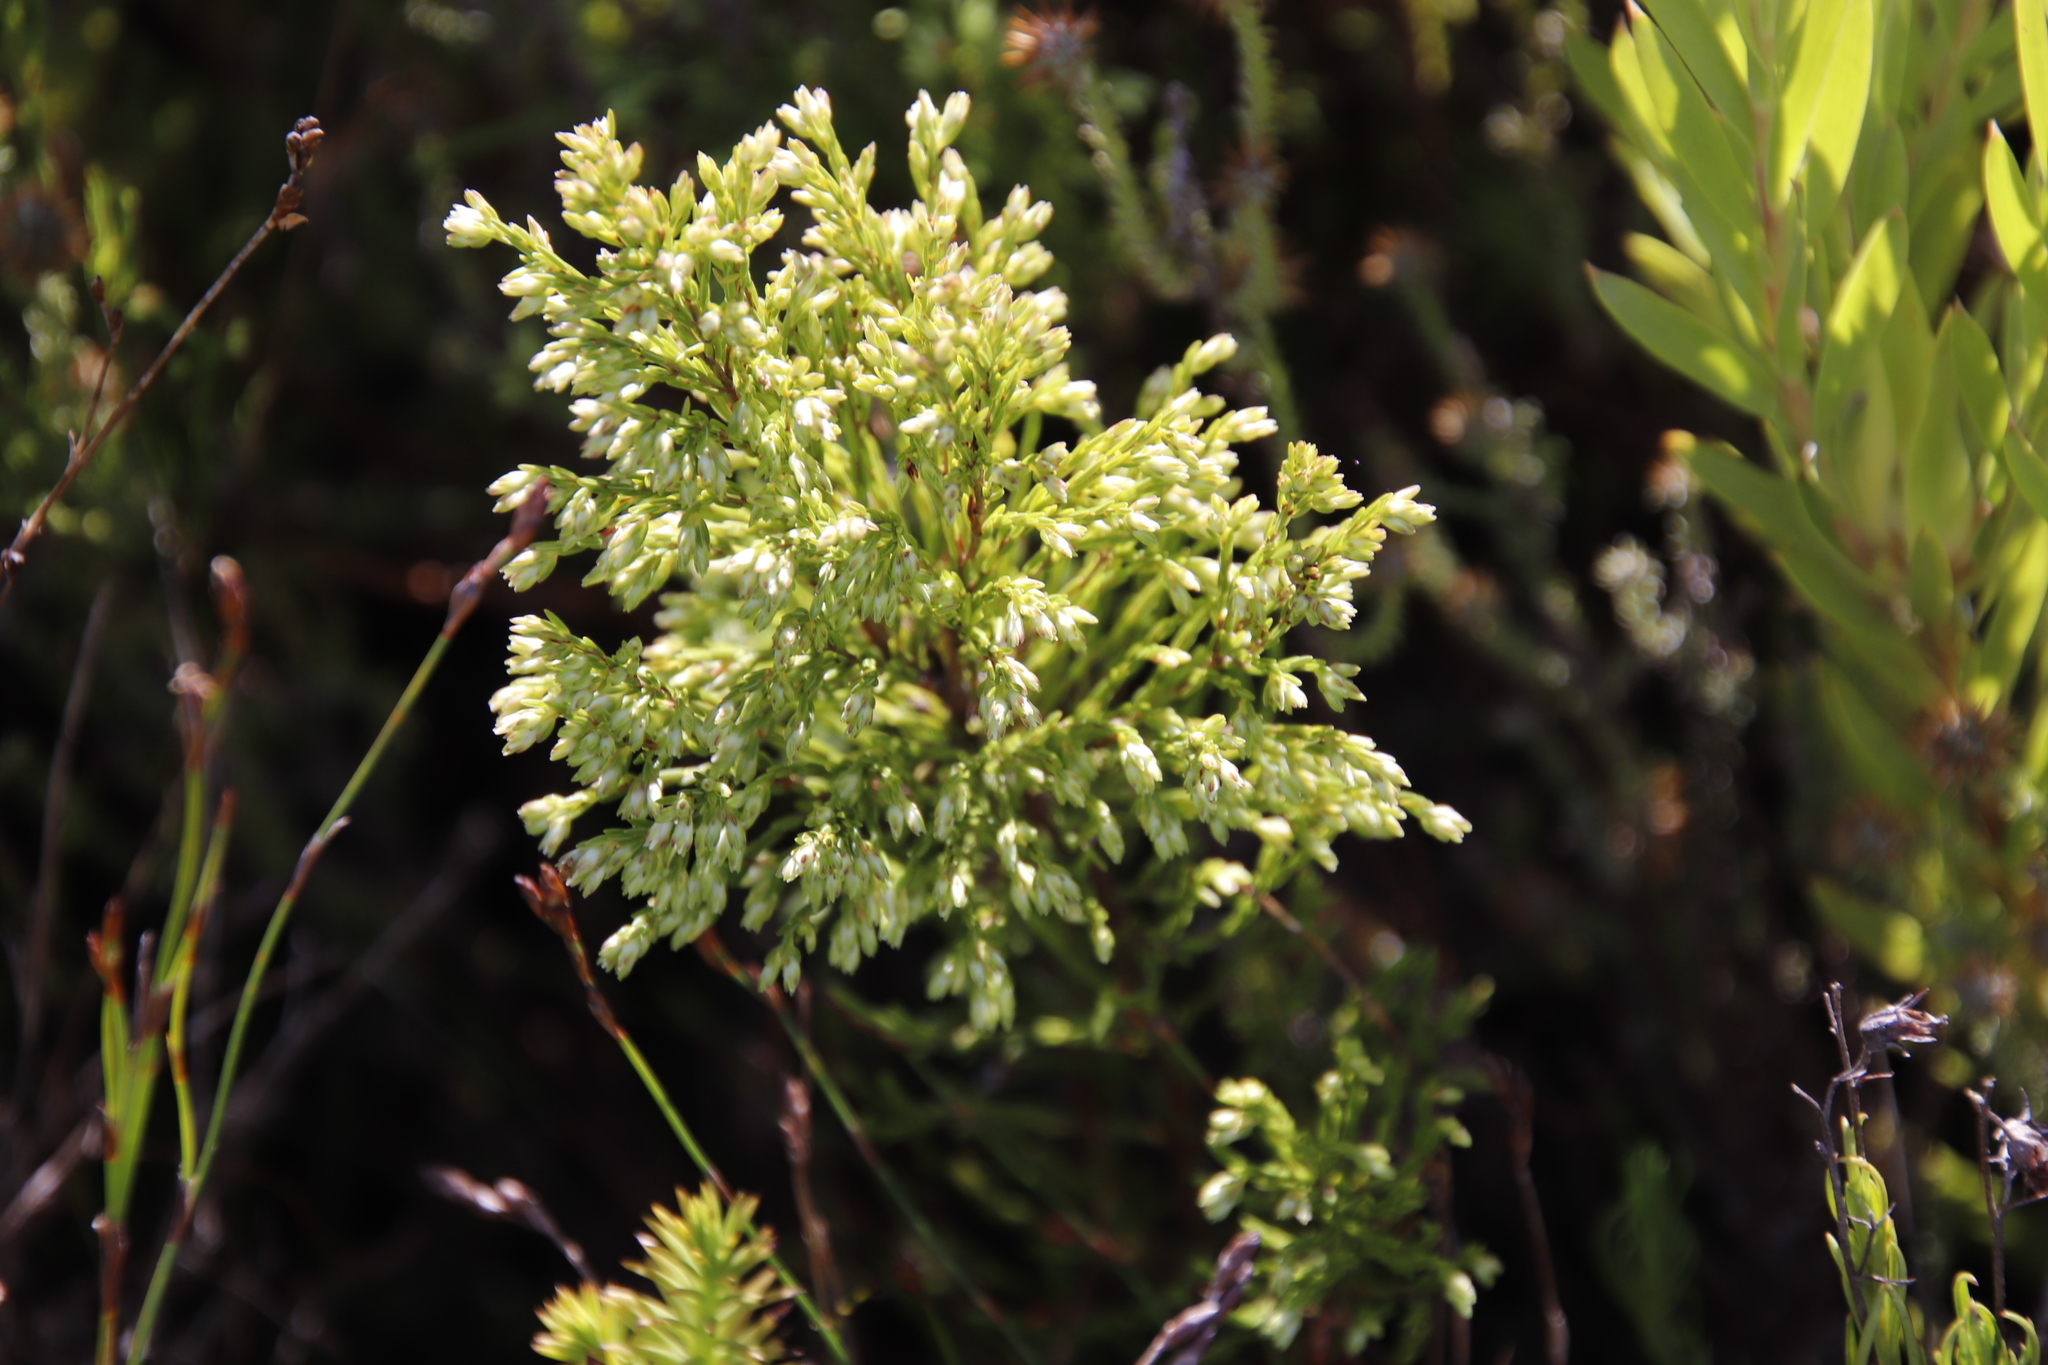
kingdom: Plantae
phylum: Tracheophyta
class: Magnoliopsida
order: Ericales
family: Ericaceae
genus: Erica
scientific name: Erica lutea
